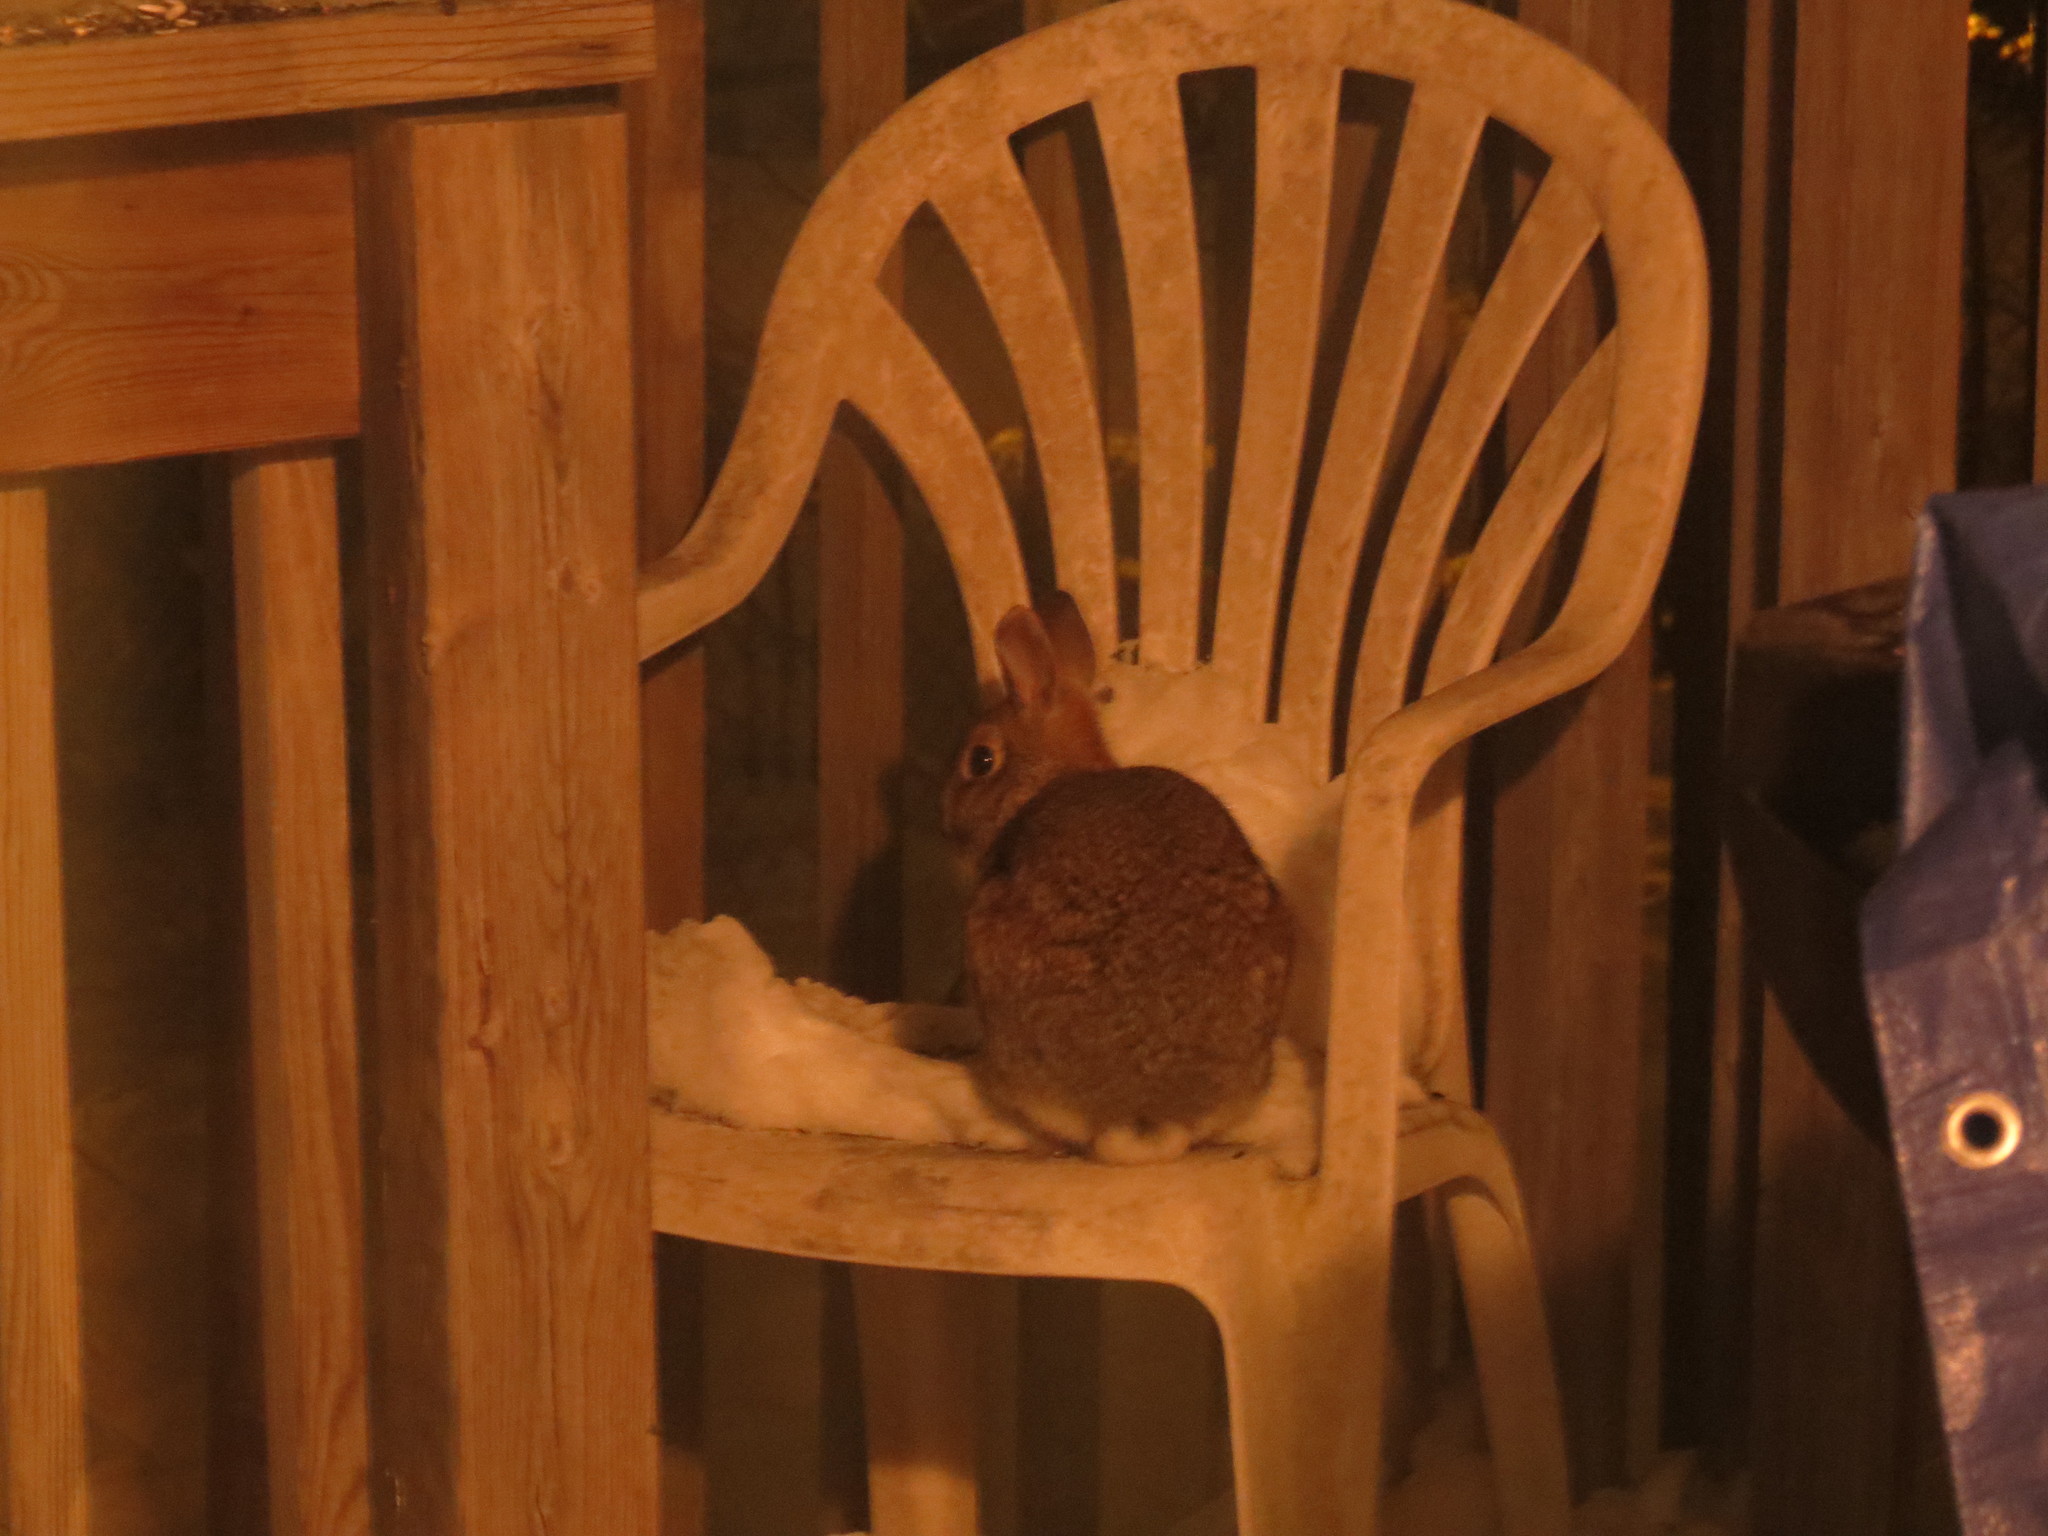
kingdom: Animalia
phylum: Chordata
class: Mammalia
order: Lagomorpha
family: Leporidae
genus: Sylvilagus
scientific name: Sylvilagus floridanus
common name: Eastern cottontail
